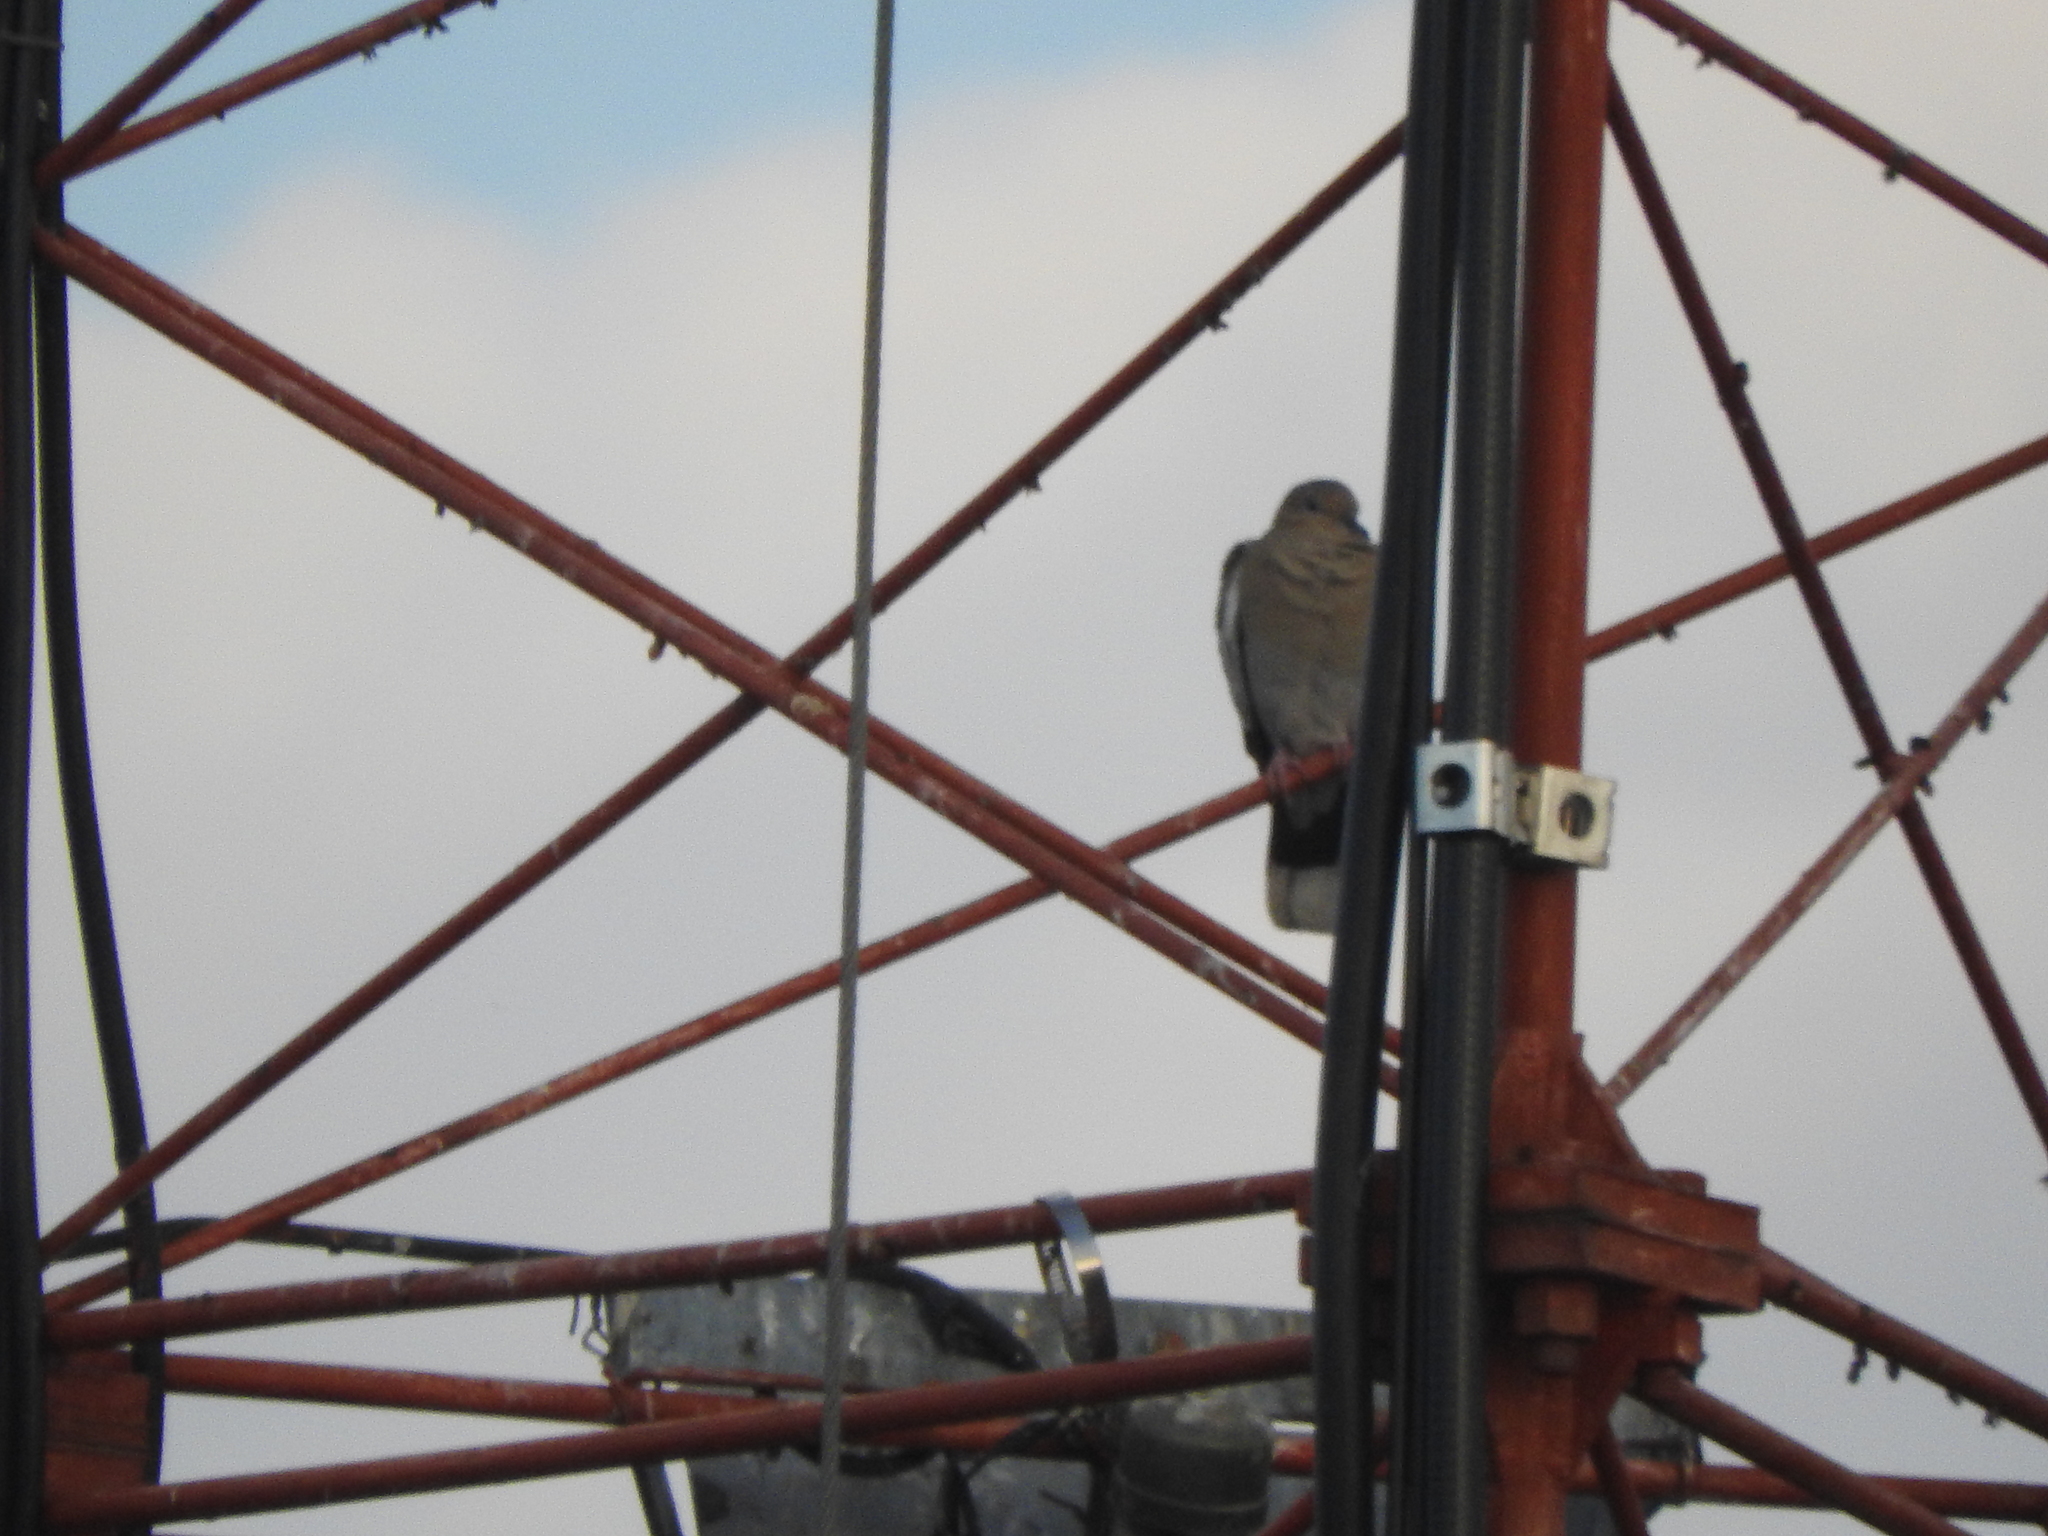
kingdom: Animalia
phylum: Chordata
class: Aves
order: Columbiformes
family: Columbidae
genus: Zenaida
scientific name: Zenaida asiatica
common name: White-winged dove
